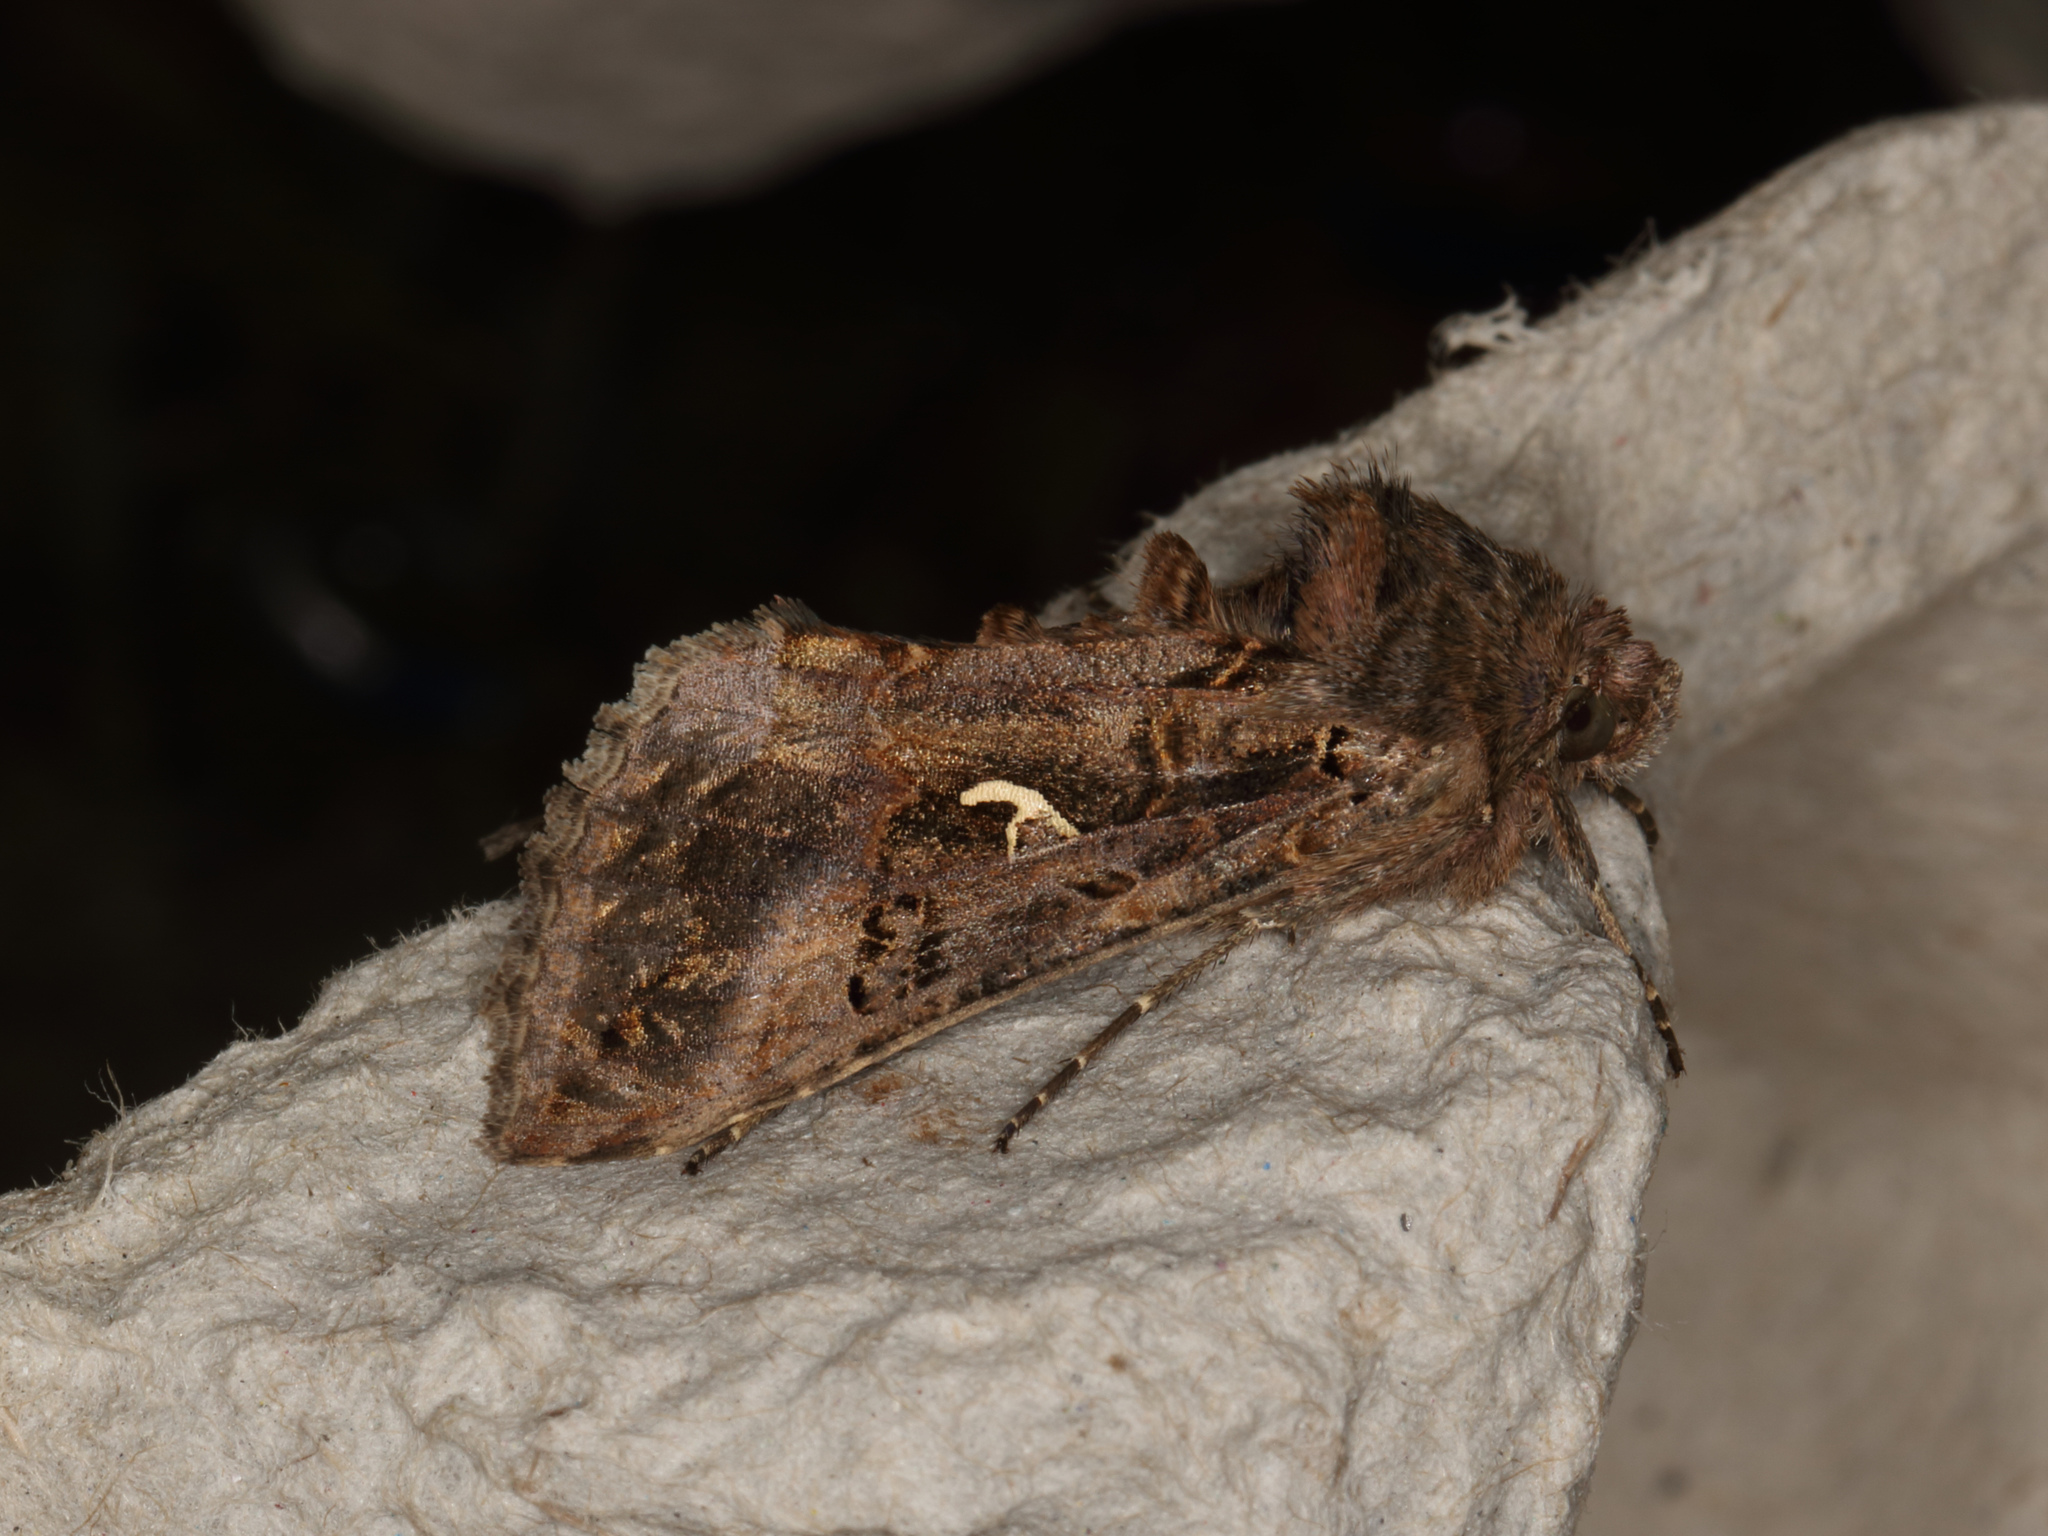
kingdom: Animalia
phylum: Arthropoda
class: Insecta
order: Lepidoptera
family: Noctuidae
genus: Autographa
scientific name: Autographa gamma
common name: Silver y
